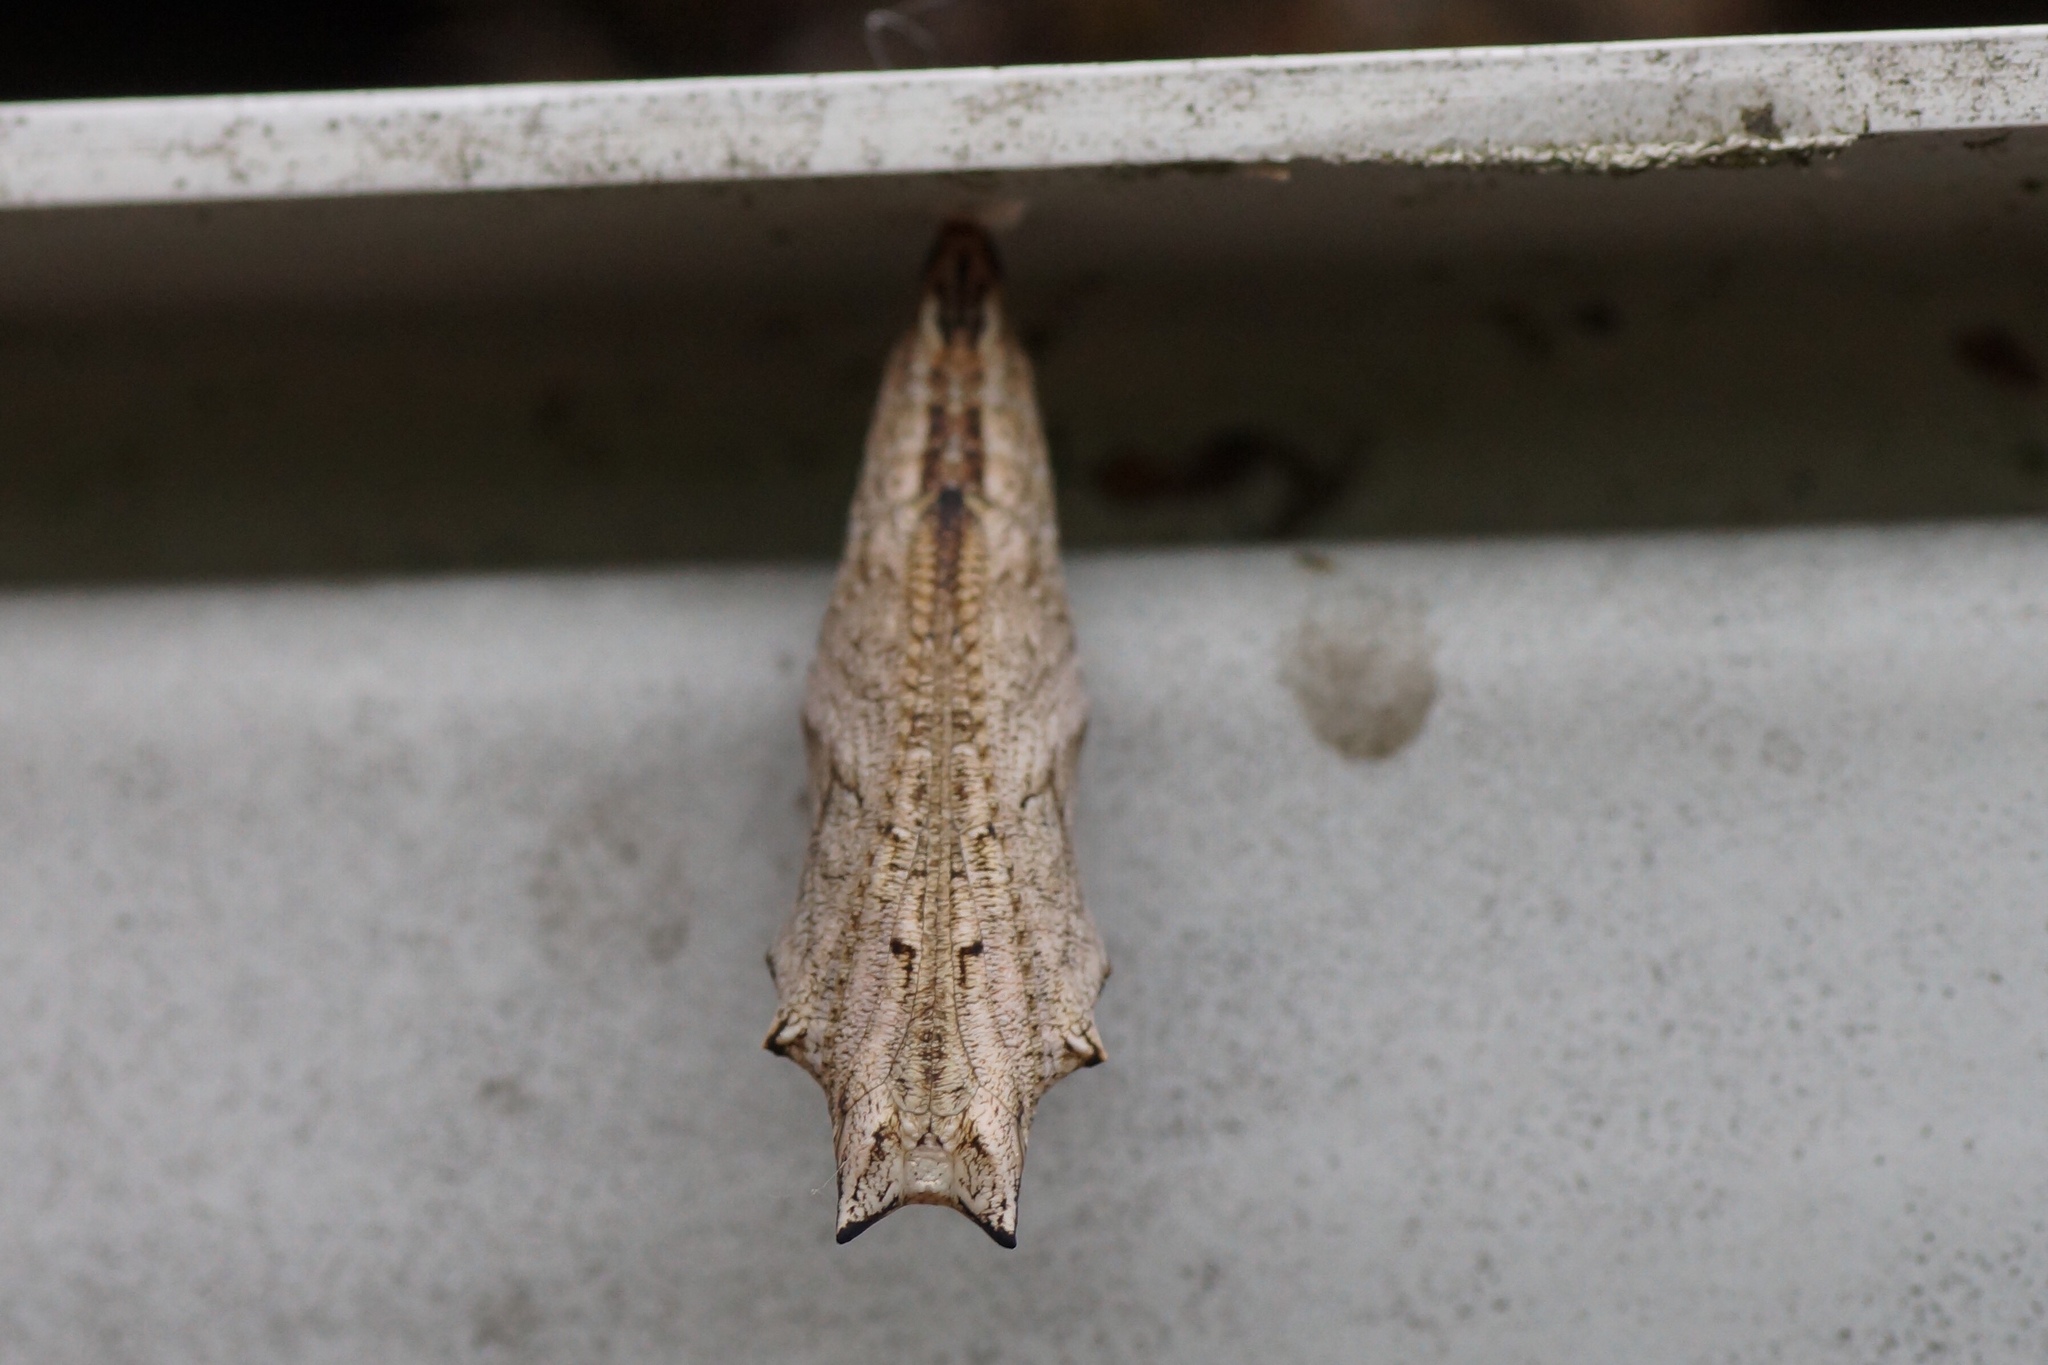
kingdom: Animalia
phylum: Arthropoda
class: Insecta
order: Lepidoptera
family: Nymphalidae
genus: Aglais
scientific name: Aglais urticae
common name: Small tortoiseshell
